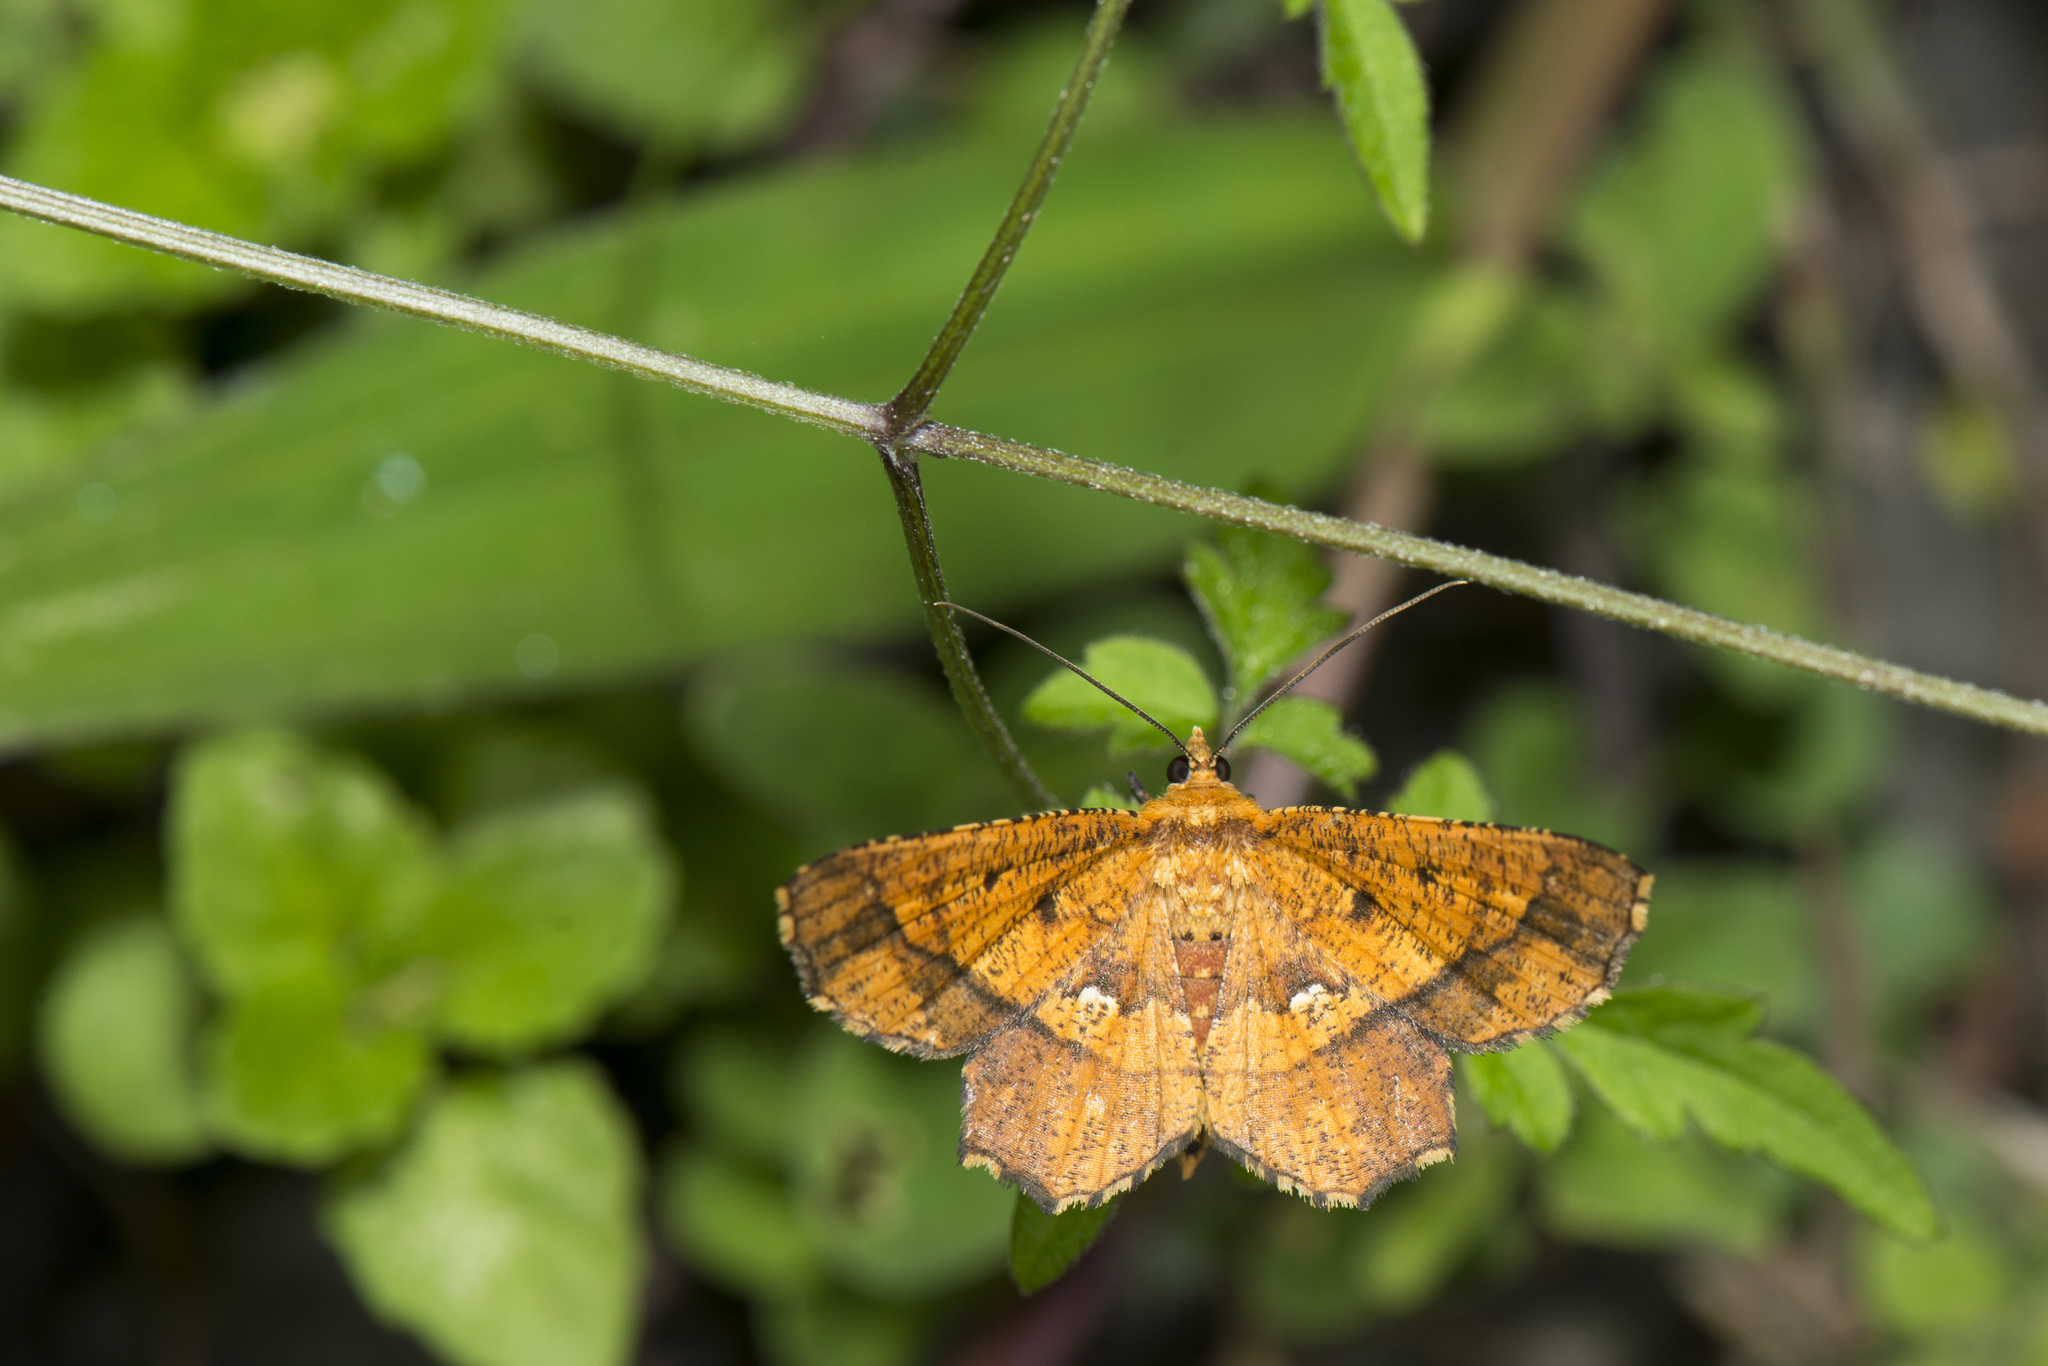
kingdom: Animalia
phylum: Arthropoda
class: Insecta
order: Lepidoptera
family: Geometridae
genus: Entomopteryx
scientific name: Entomopteryx combusta
